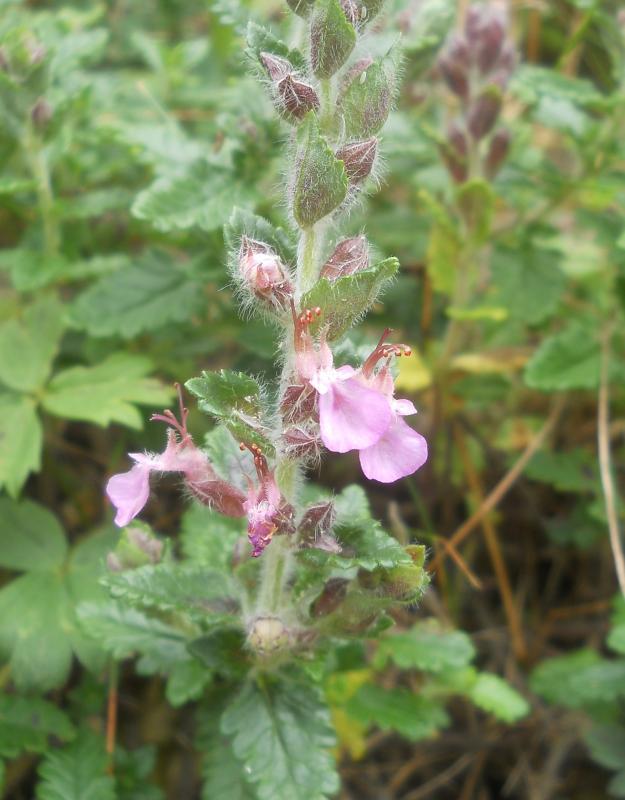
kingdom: Plantae
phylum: Tracheophyta
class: Magnoliopsida
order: Lamiales
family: Lamiaceae
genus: Teucrium
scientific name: Teucrium chamaedrys
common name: Wall germander
